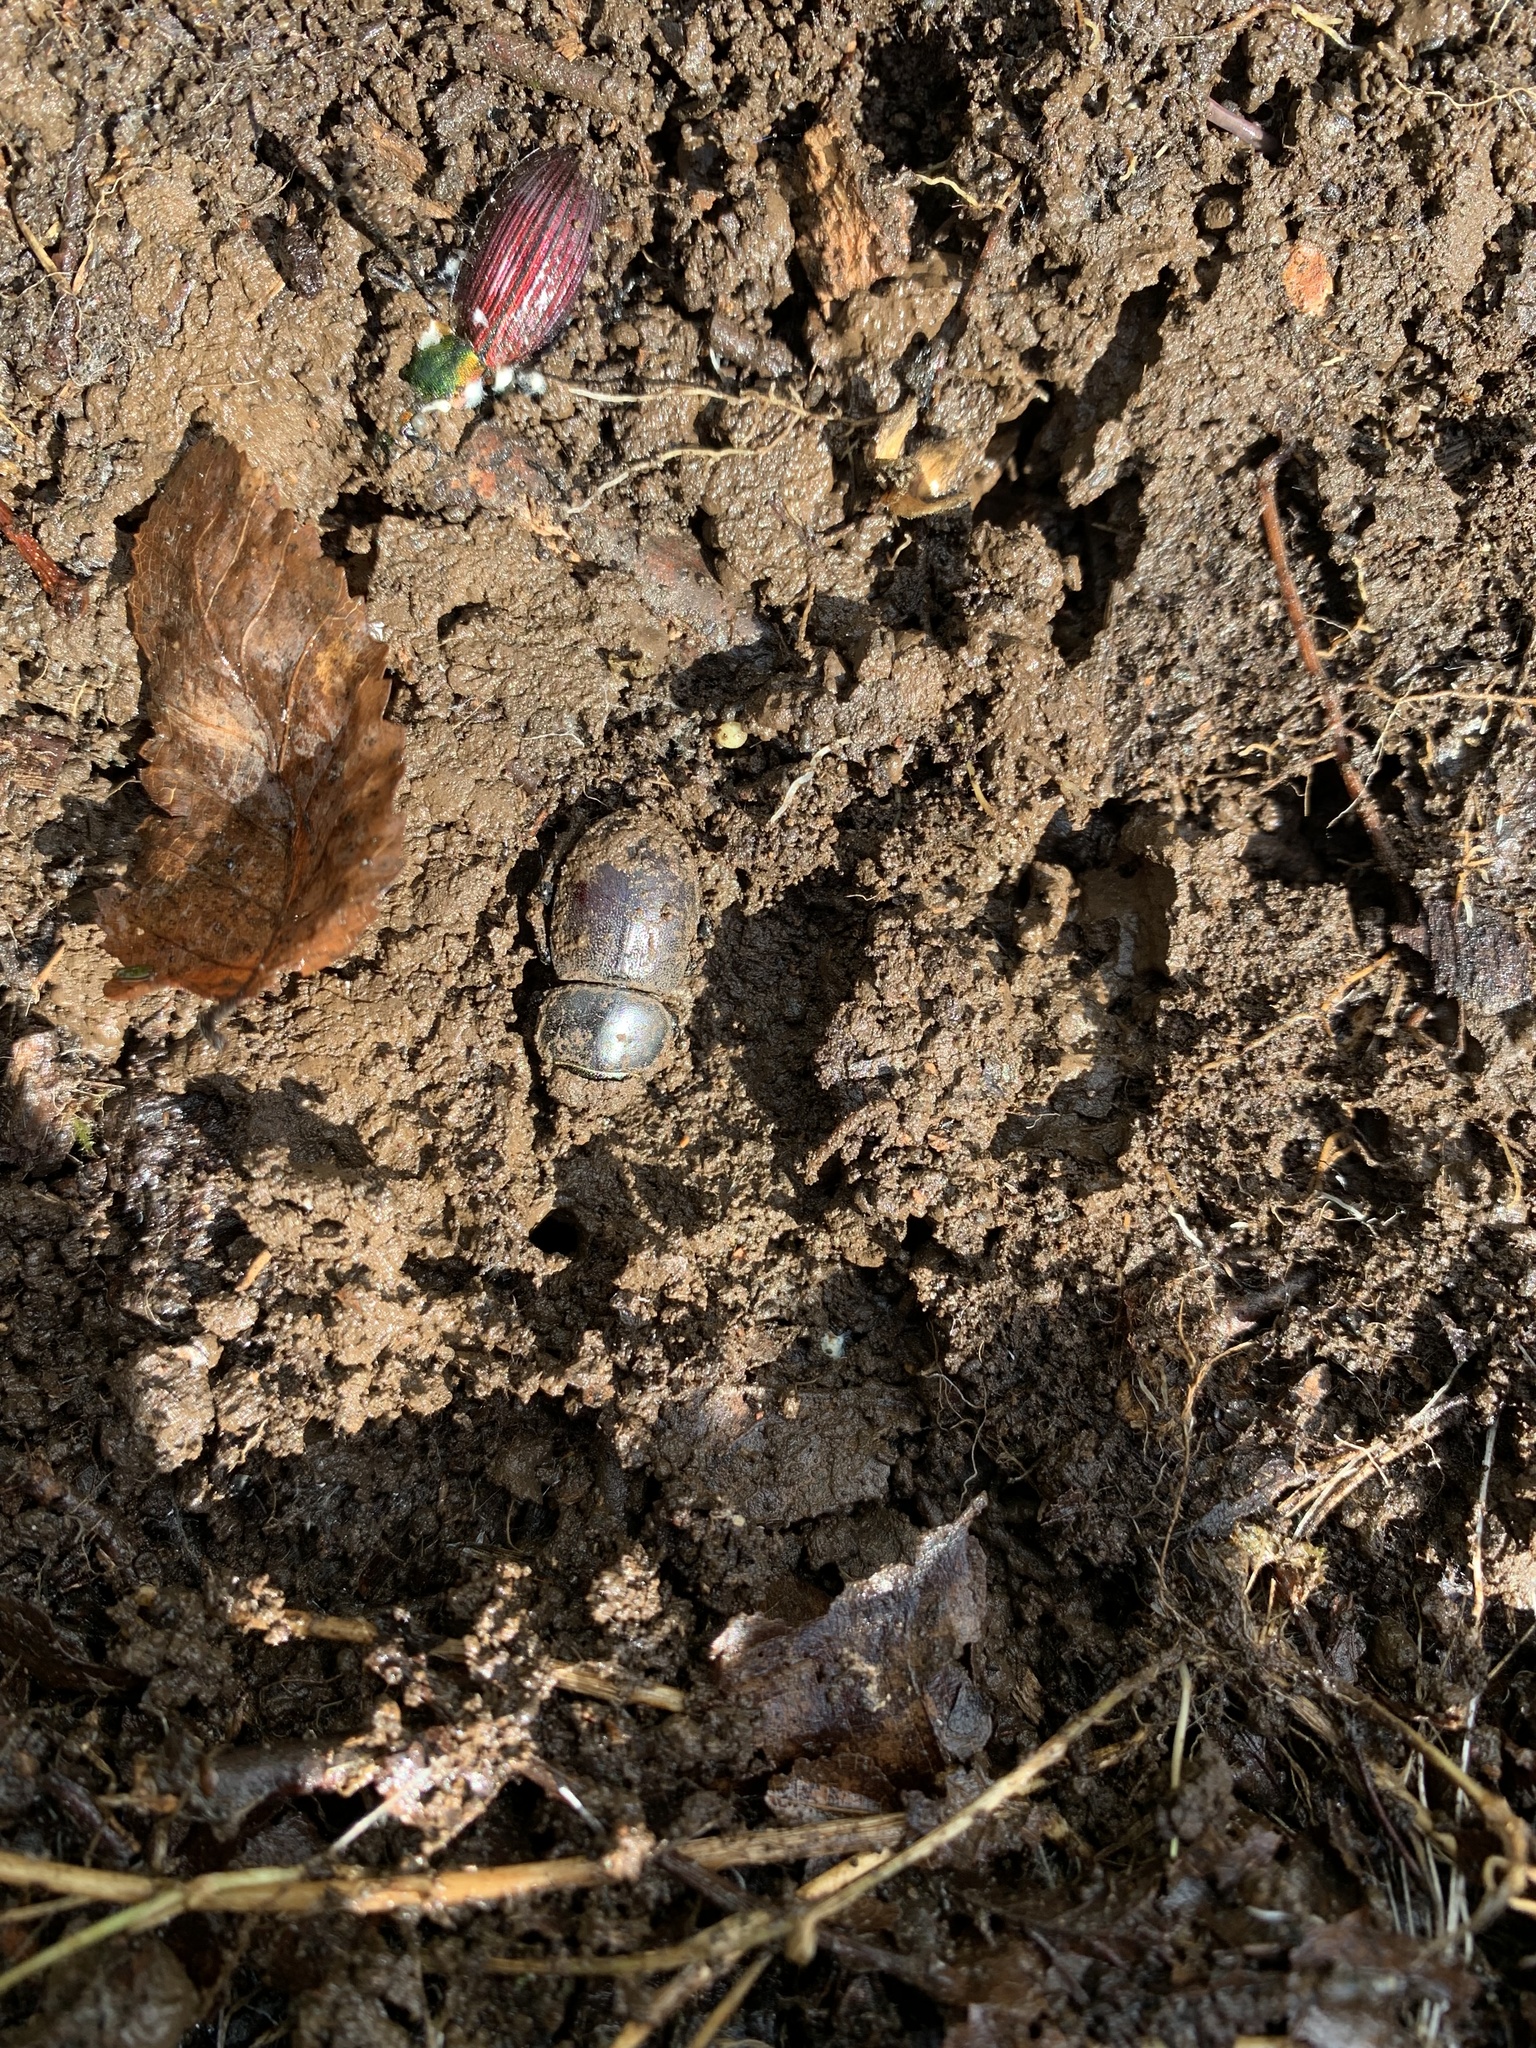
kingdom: Animalia
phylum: Arthropoda
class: Insecta
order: Coleoptera
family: Lucanidae
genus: Apterodorcus
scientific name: Apterodorcus bacchus
